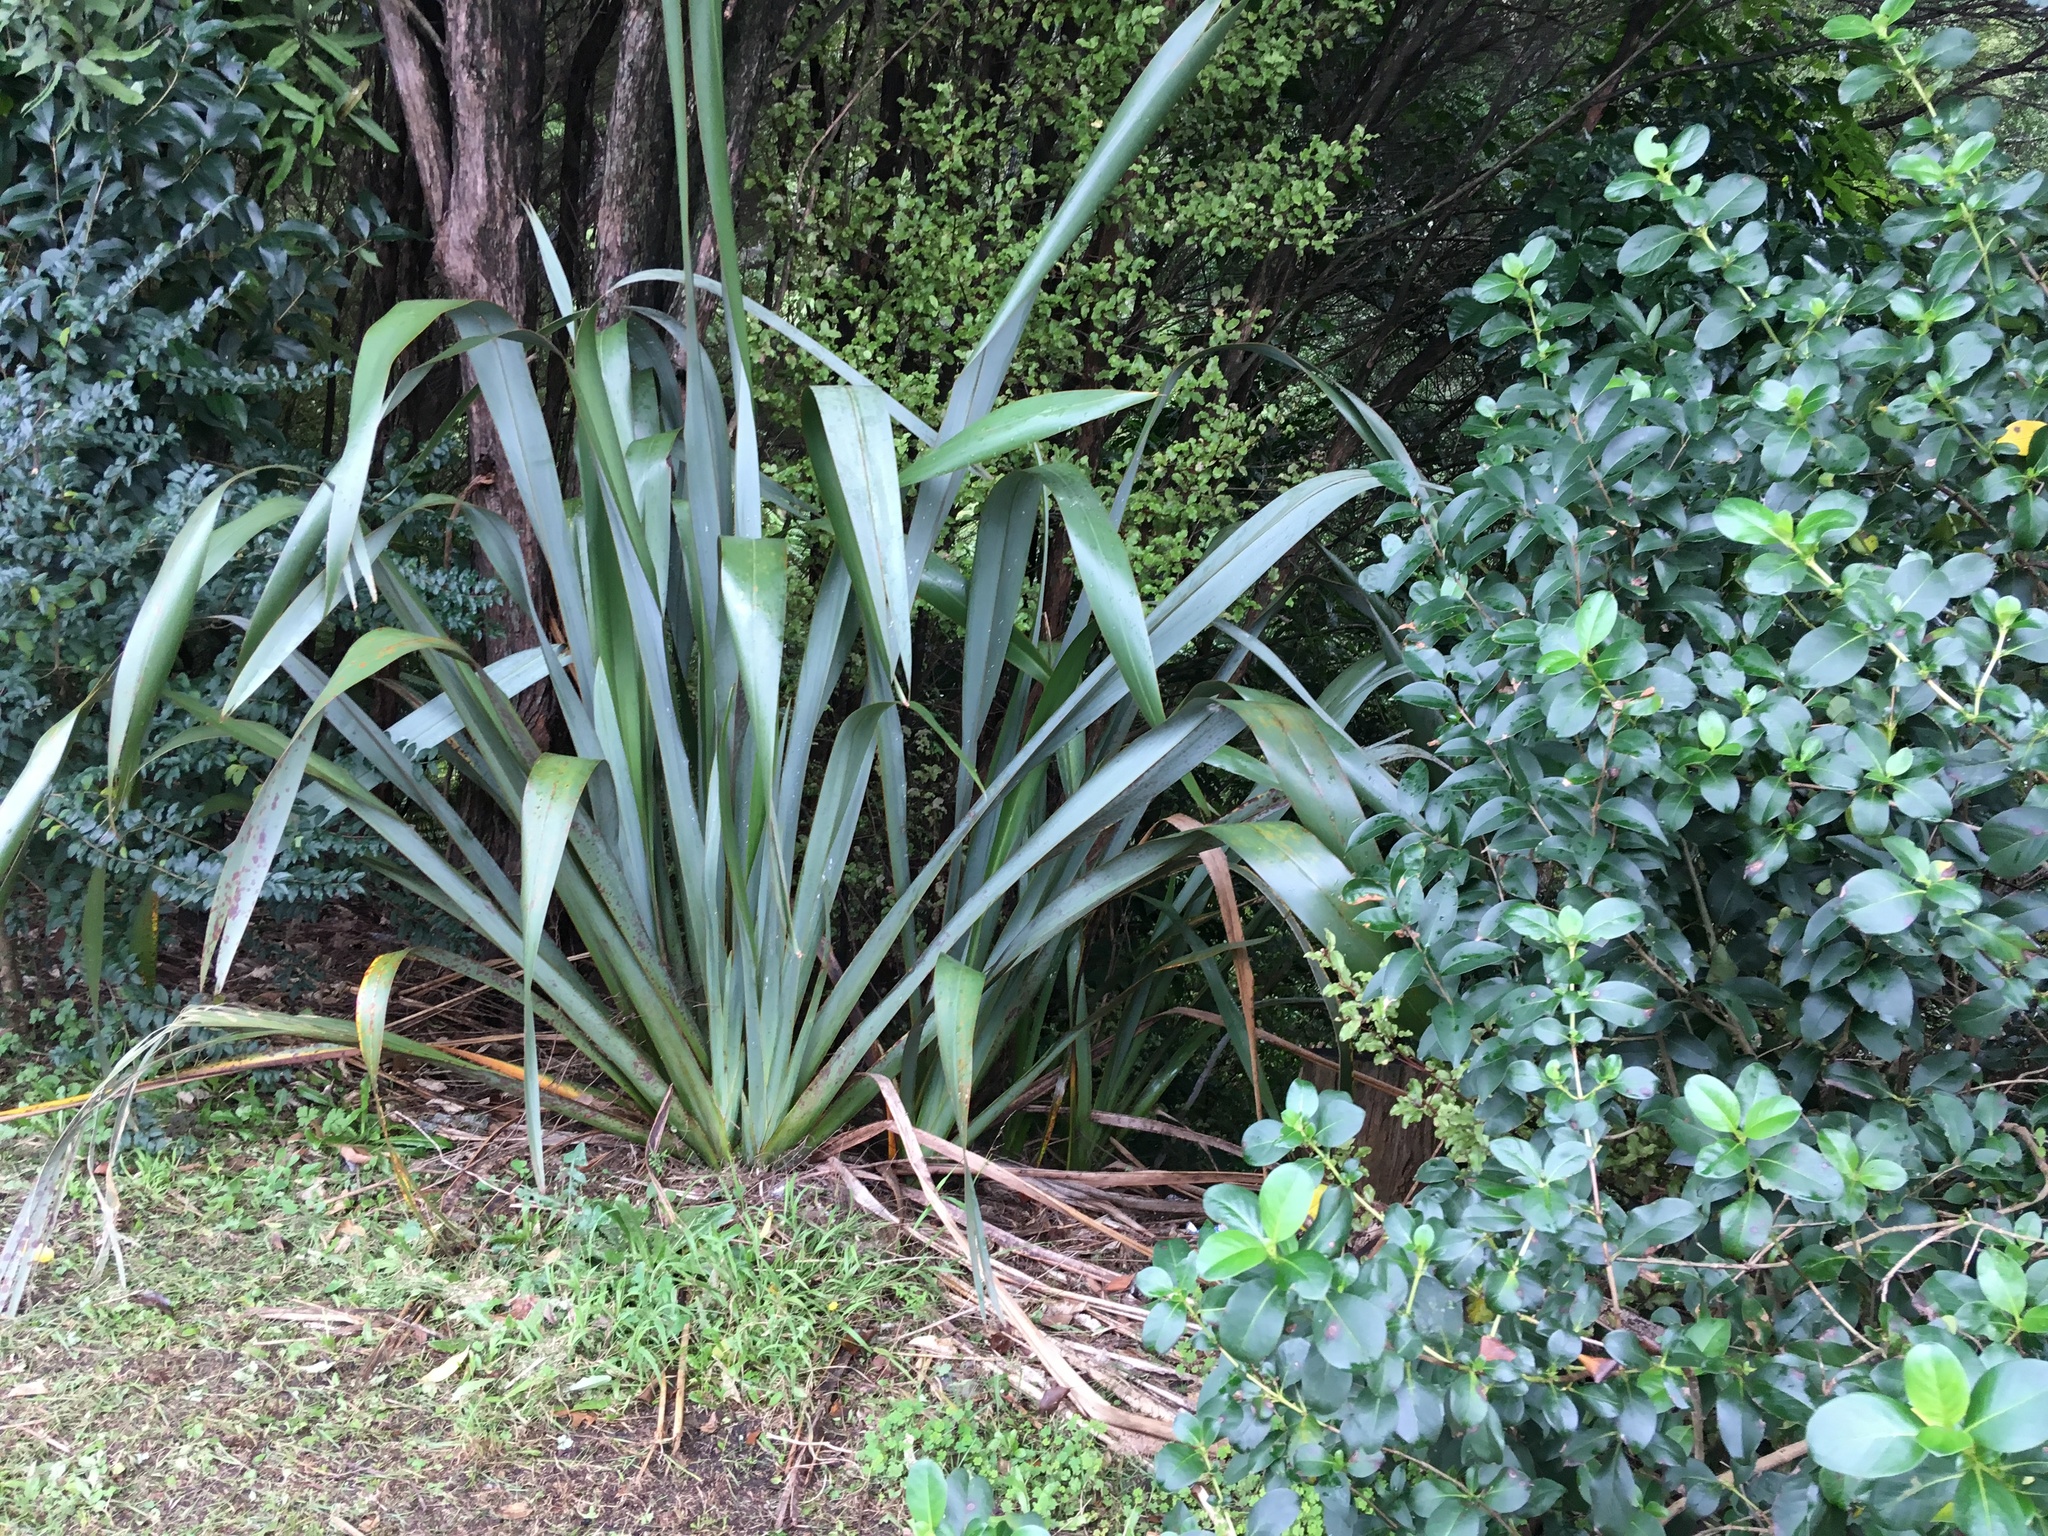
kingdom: Plantae
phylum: Tracheophyta
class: Liliopsida
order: Asparagales
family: Asphodelaceae
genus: Phormium
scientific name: Phormium tenax
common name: New zealand flax
